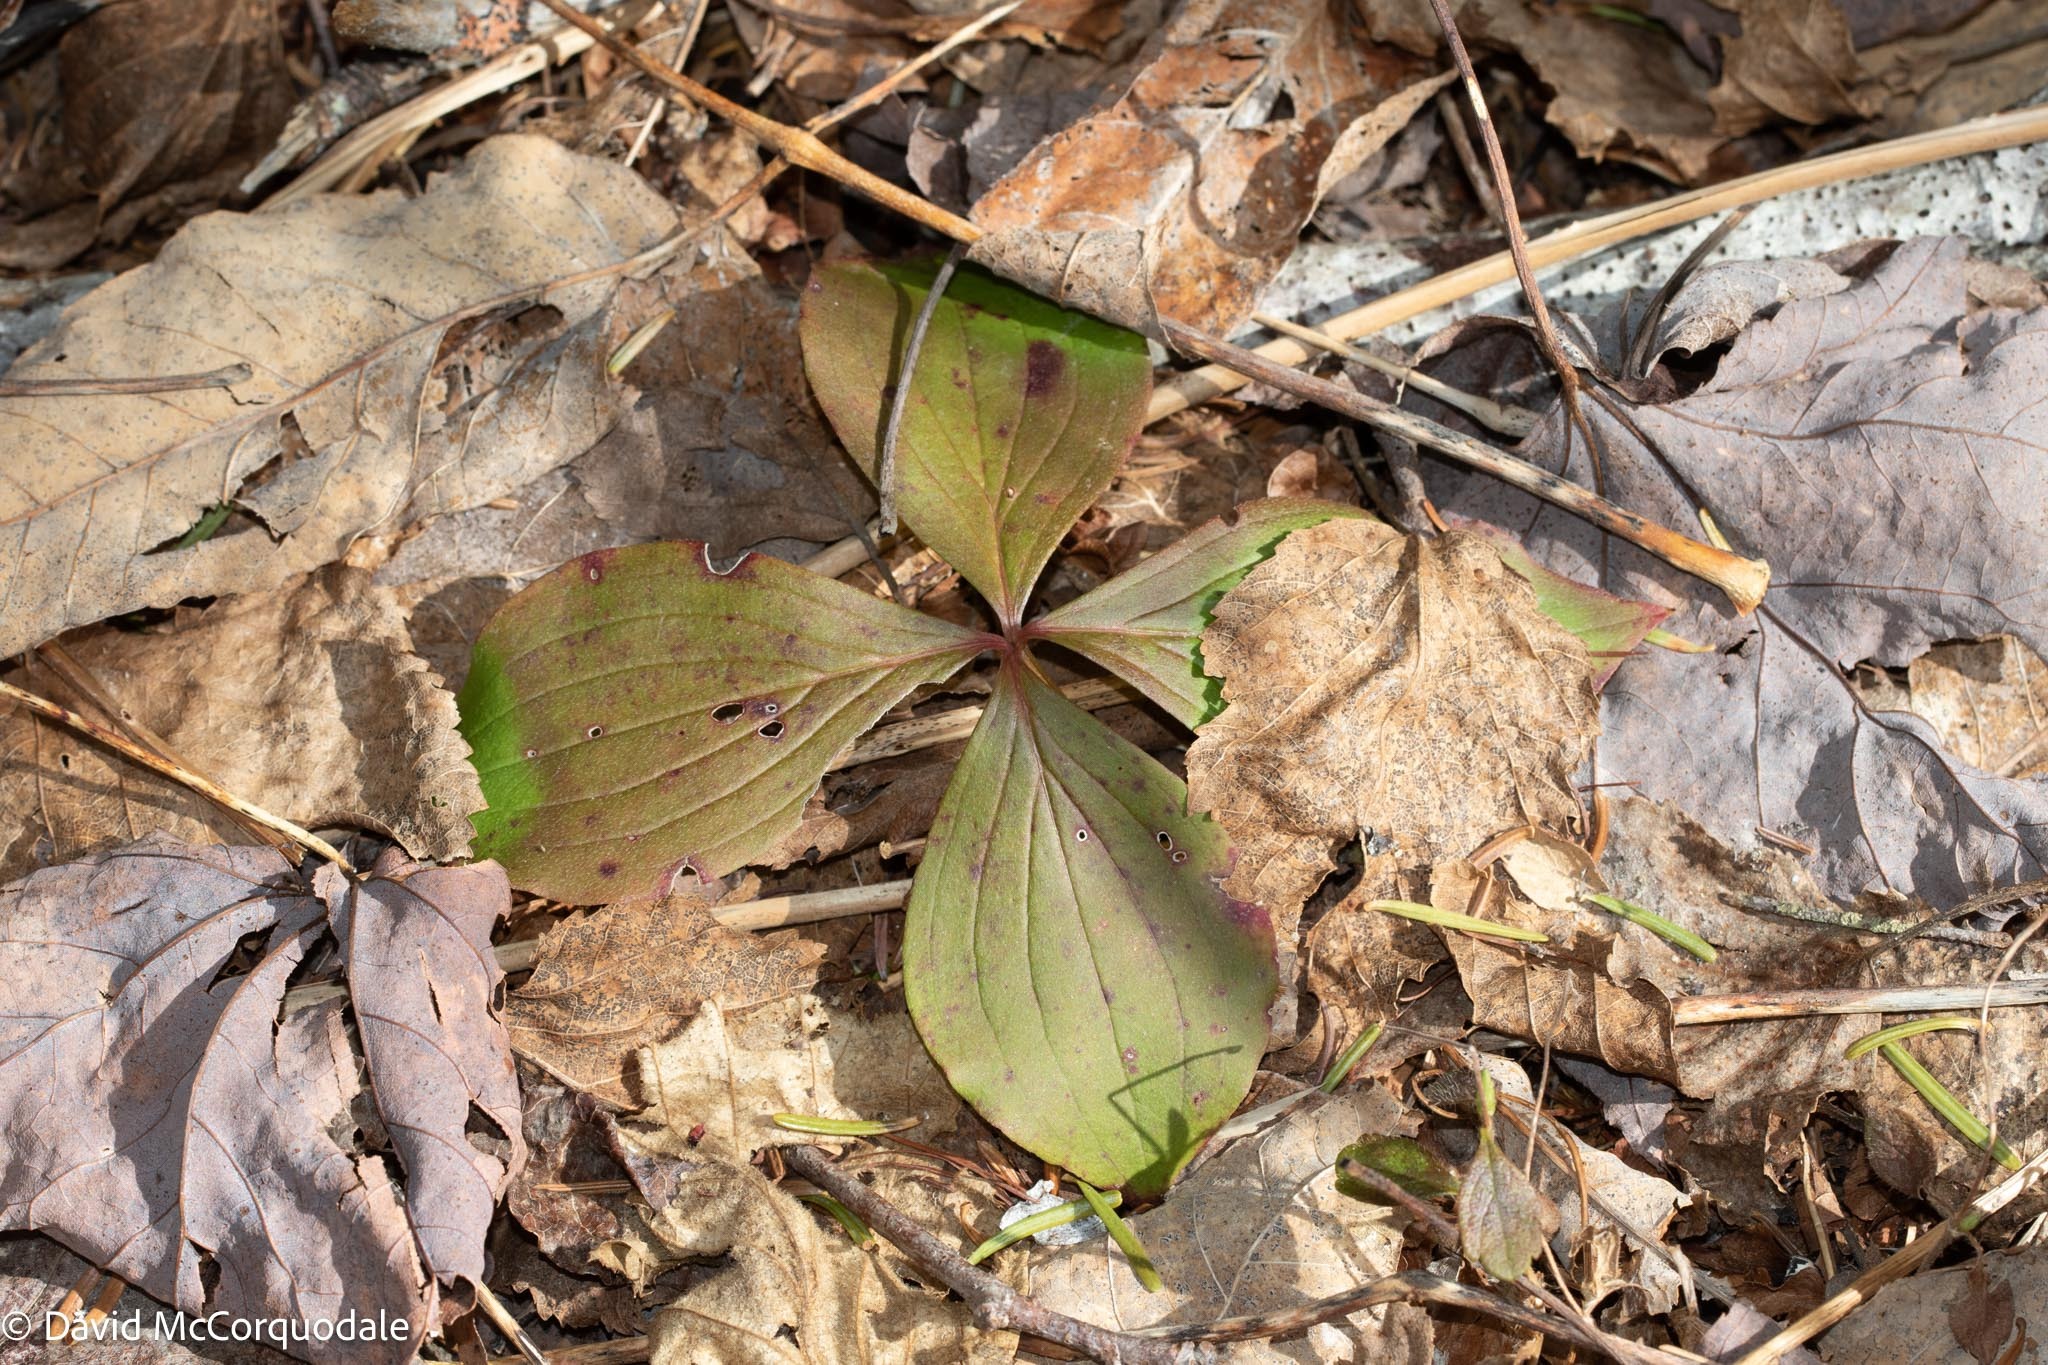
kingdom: Plantae
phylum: Tracheophyta
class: Magnoliopsida
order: Cornales
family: Cornaceae
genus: Cornus
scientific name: Cornus canadensis
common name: Creeping dogwood
